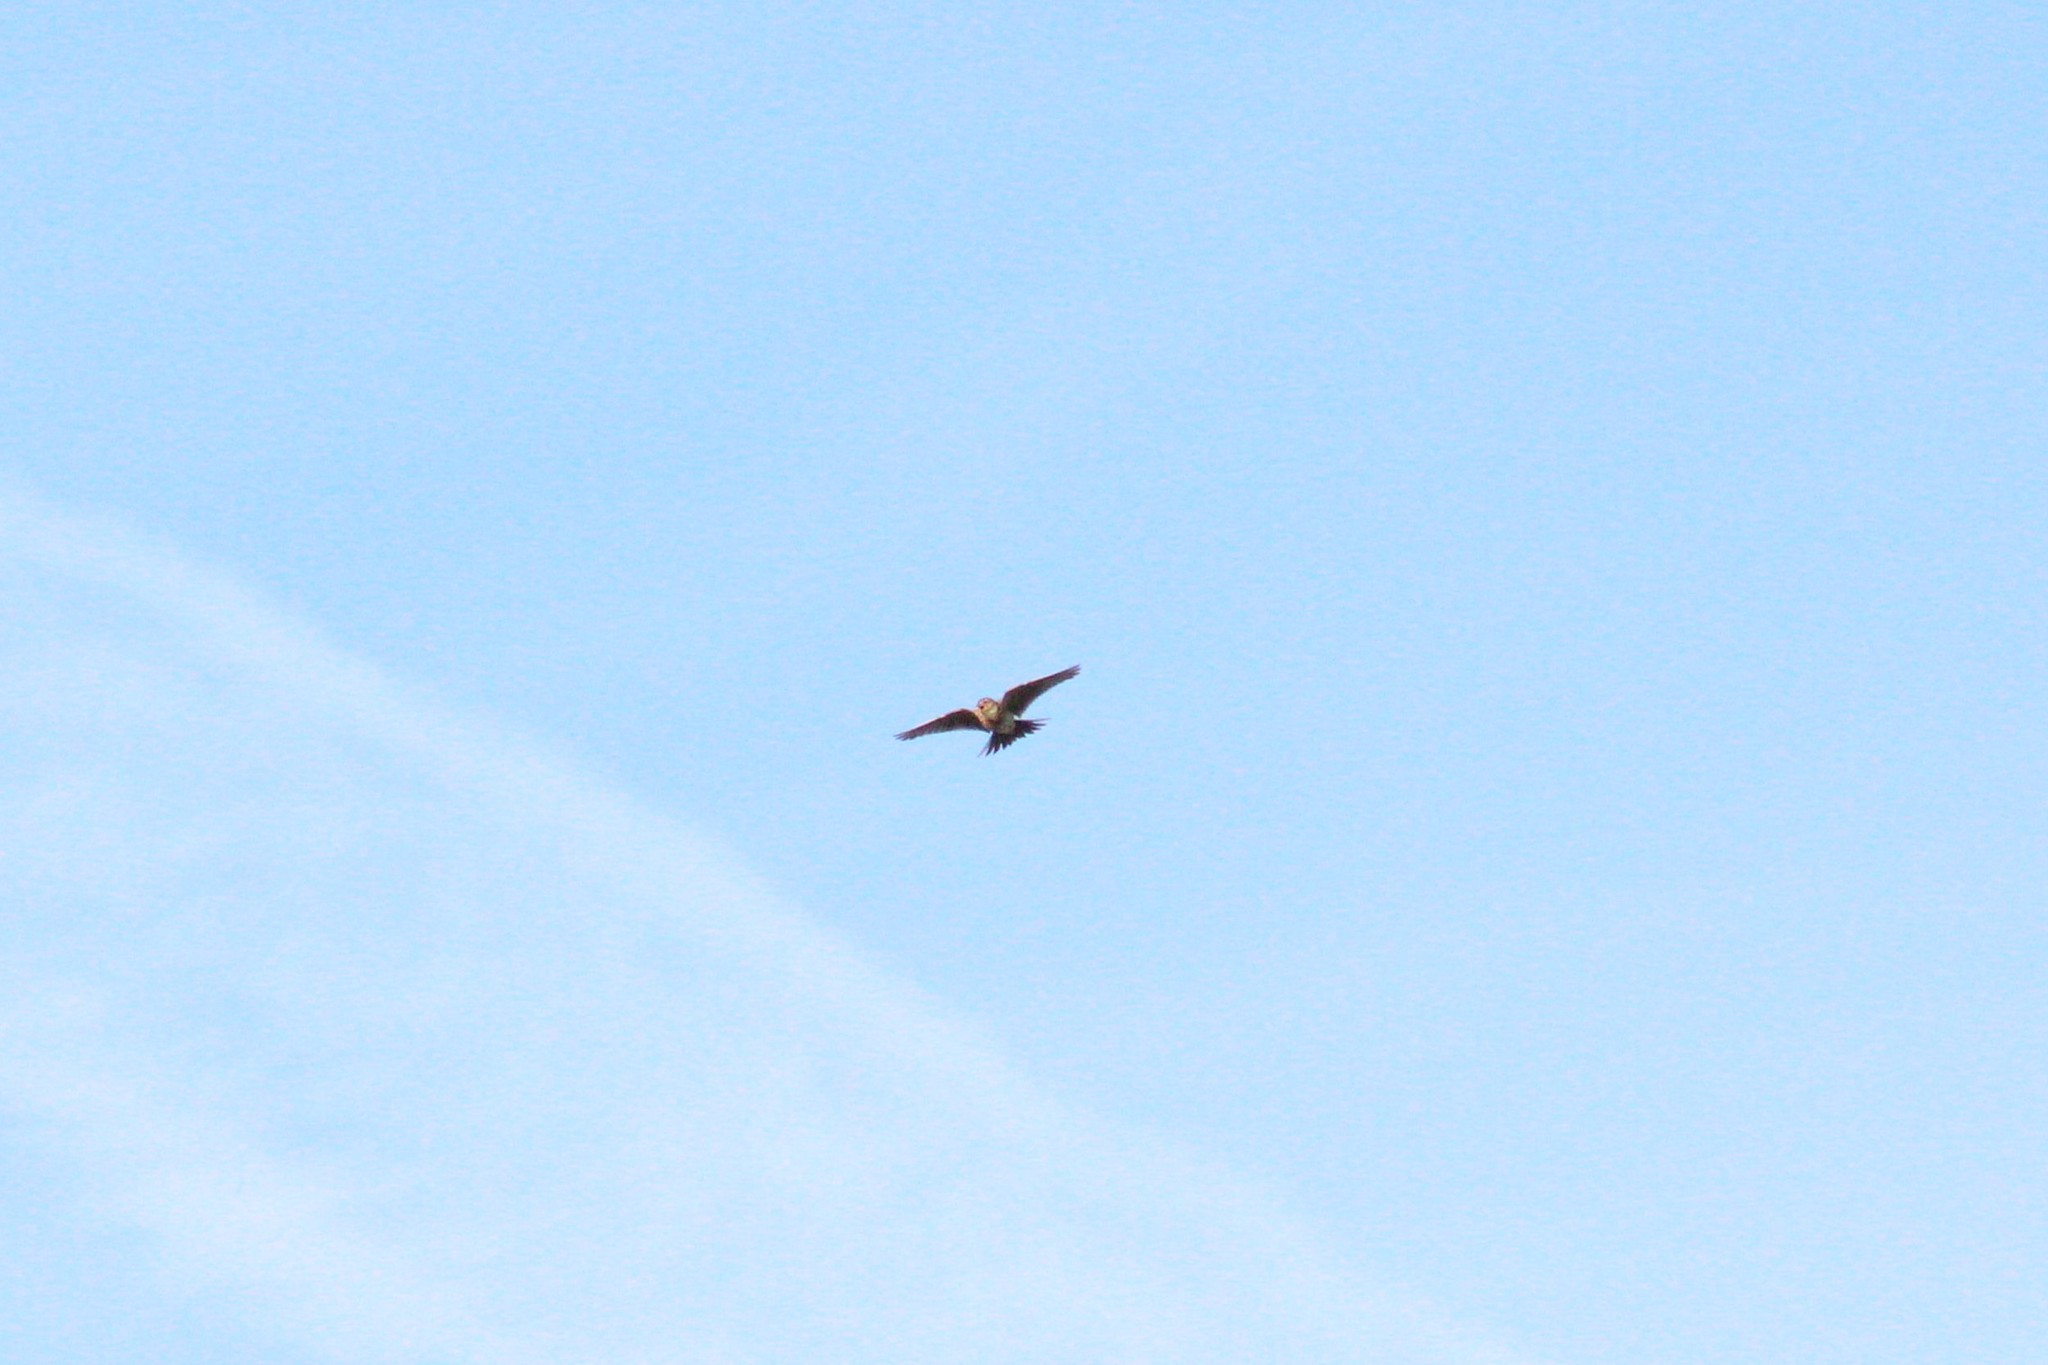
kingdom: Animalia
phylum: Chordata
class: Aves
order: Passeriformes
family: Alaudidae
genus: Alauda
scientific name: Alauda arvensis
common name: Eurasian skylark
